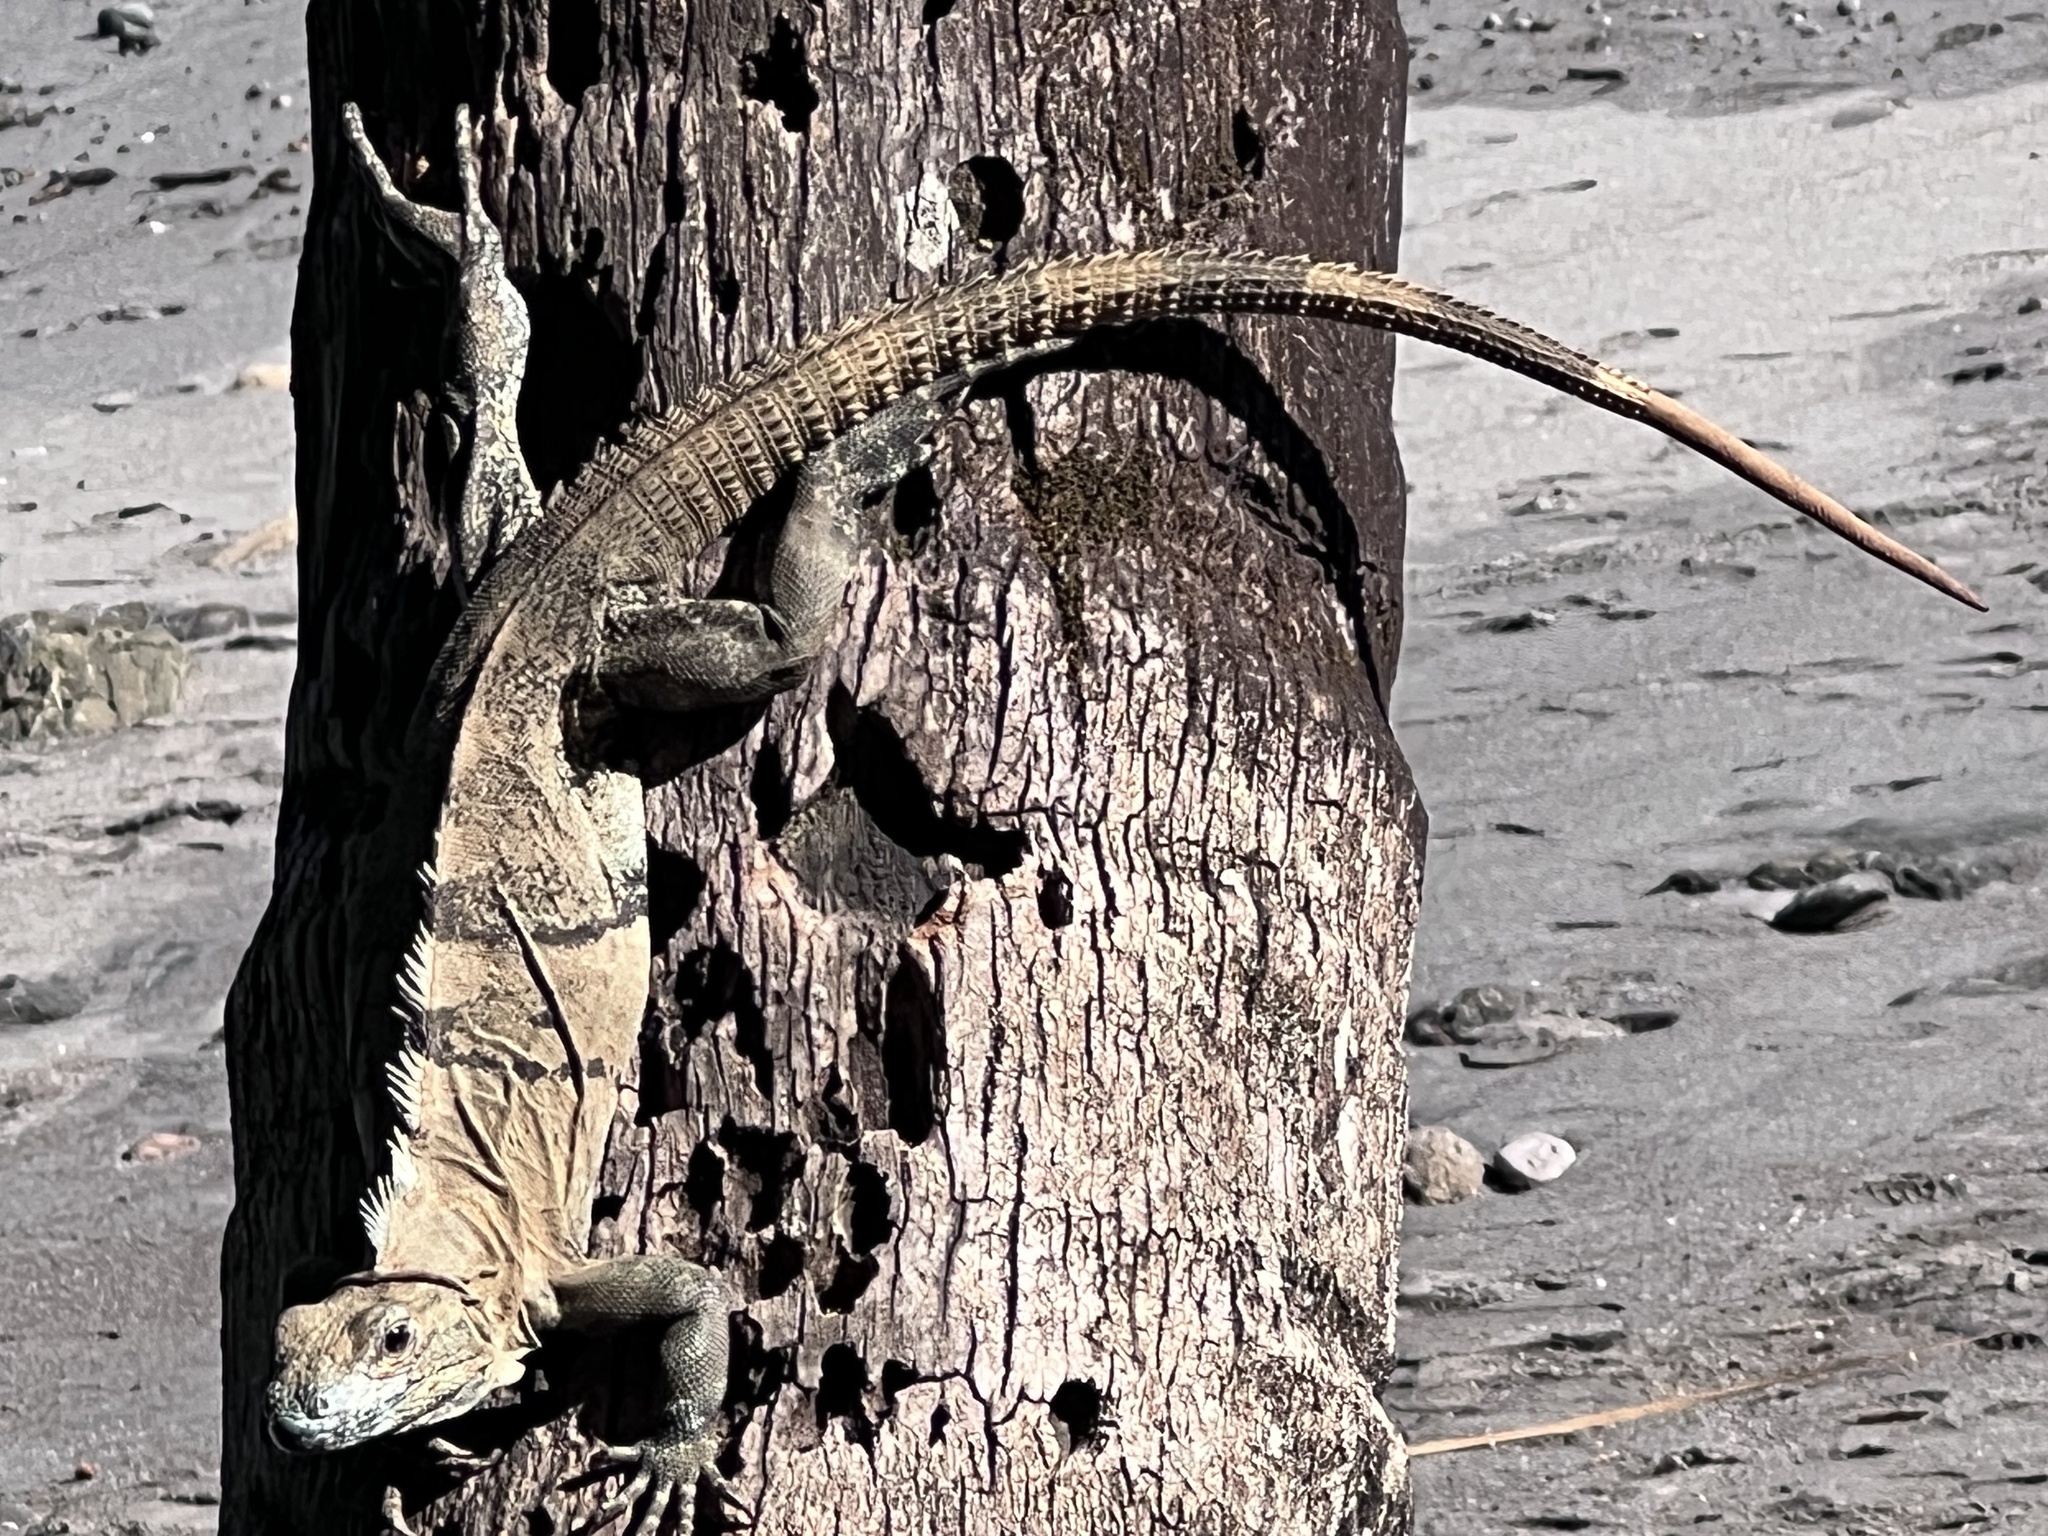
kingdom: Animalia
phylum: Chordata
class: Squamata
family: Iguanidae
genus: Ctenosaura
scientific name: Ctenosaura similis
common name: Black spiny-tailed iguana
